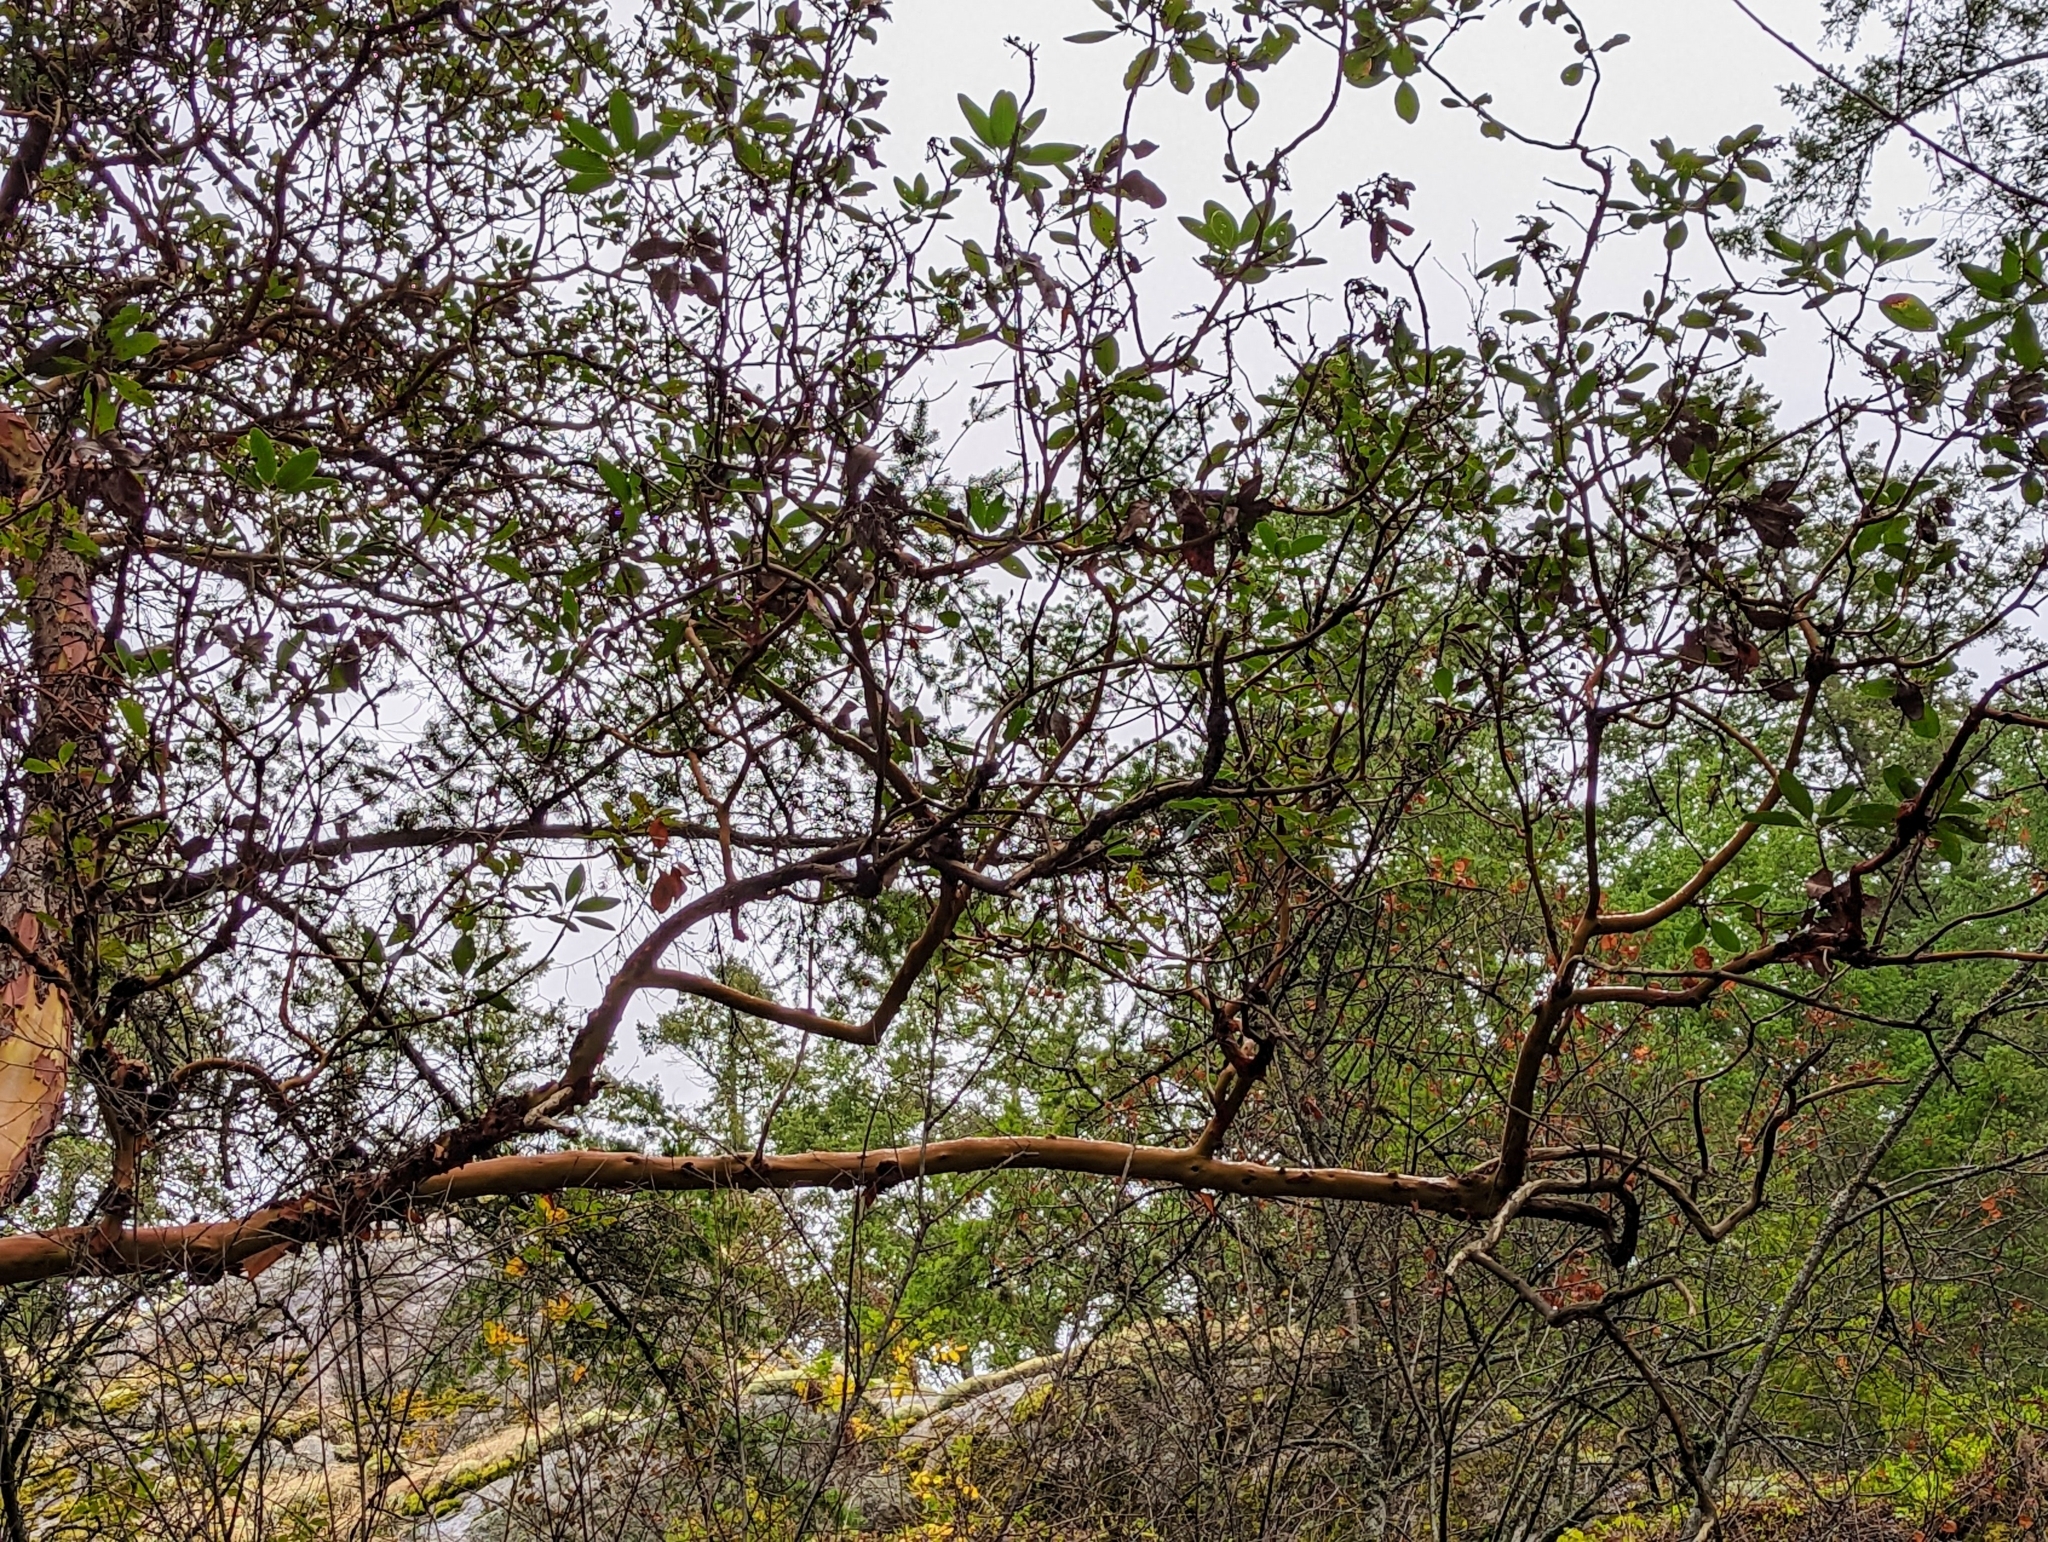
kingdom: Plantae
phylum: Tracheophyta
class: Magnoliopsida
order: Ericales
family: Ericaceae
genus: Arbutus
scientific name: Arbutus menziesii
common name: Pacific madrone
